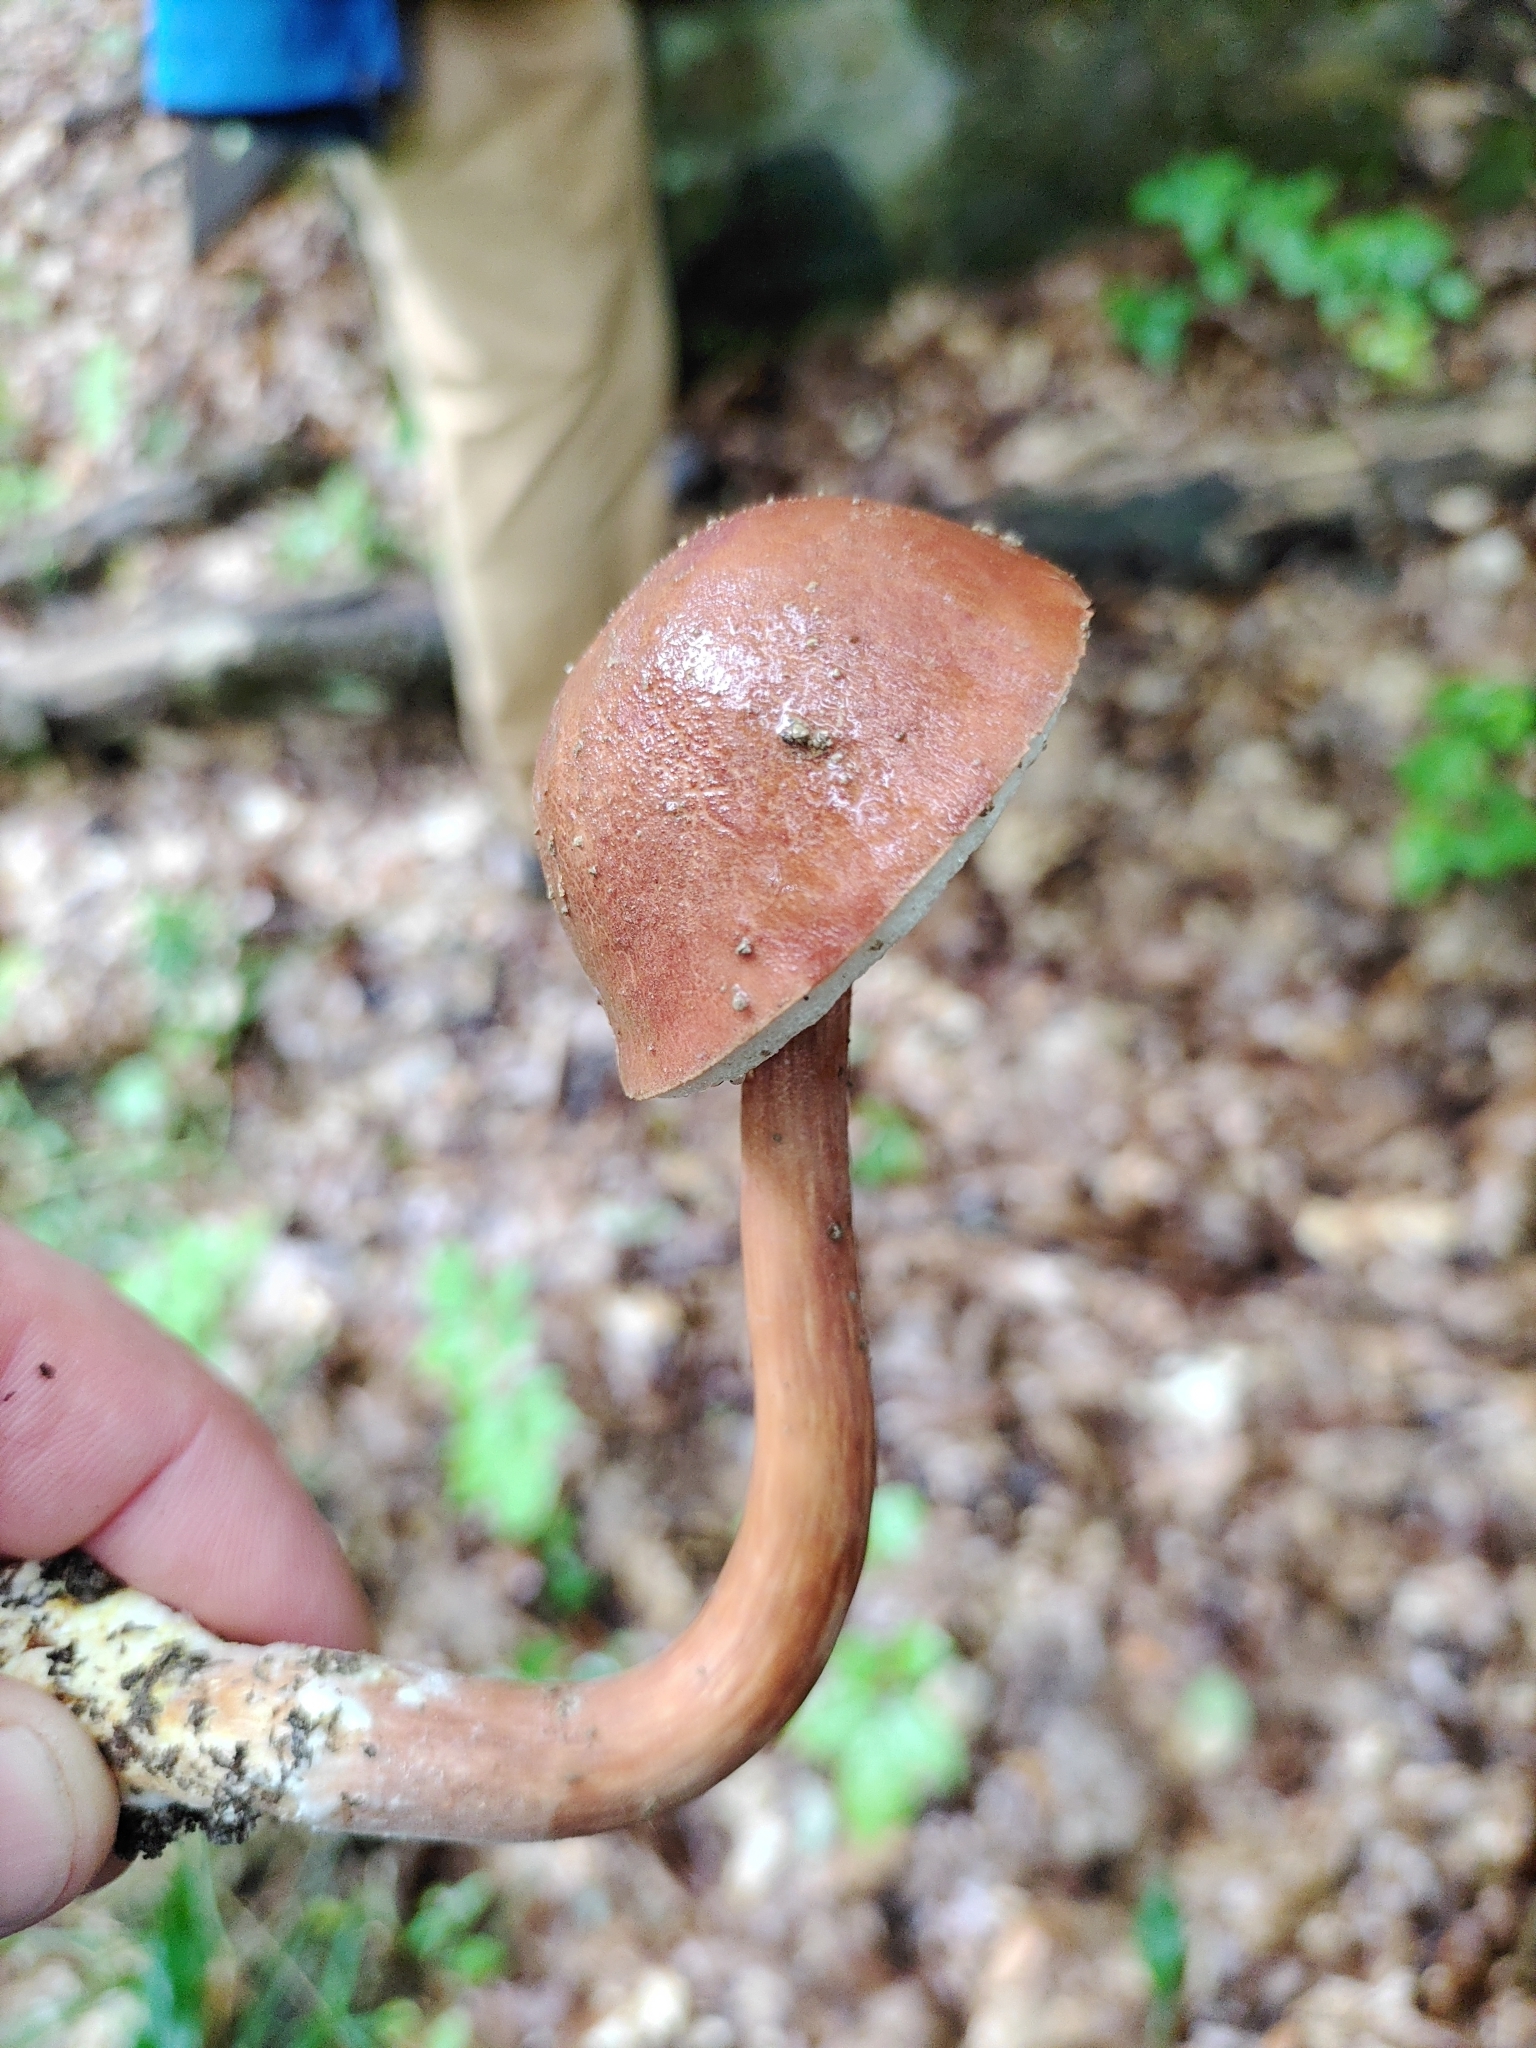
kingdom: Fungi
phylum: Basidiomycota
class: Agaricomycetes
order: Boletales
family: Boletaceae
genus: Austroboletus
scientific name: Austroboletus gracilis
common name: Graceful bolete
